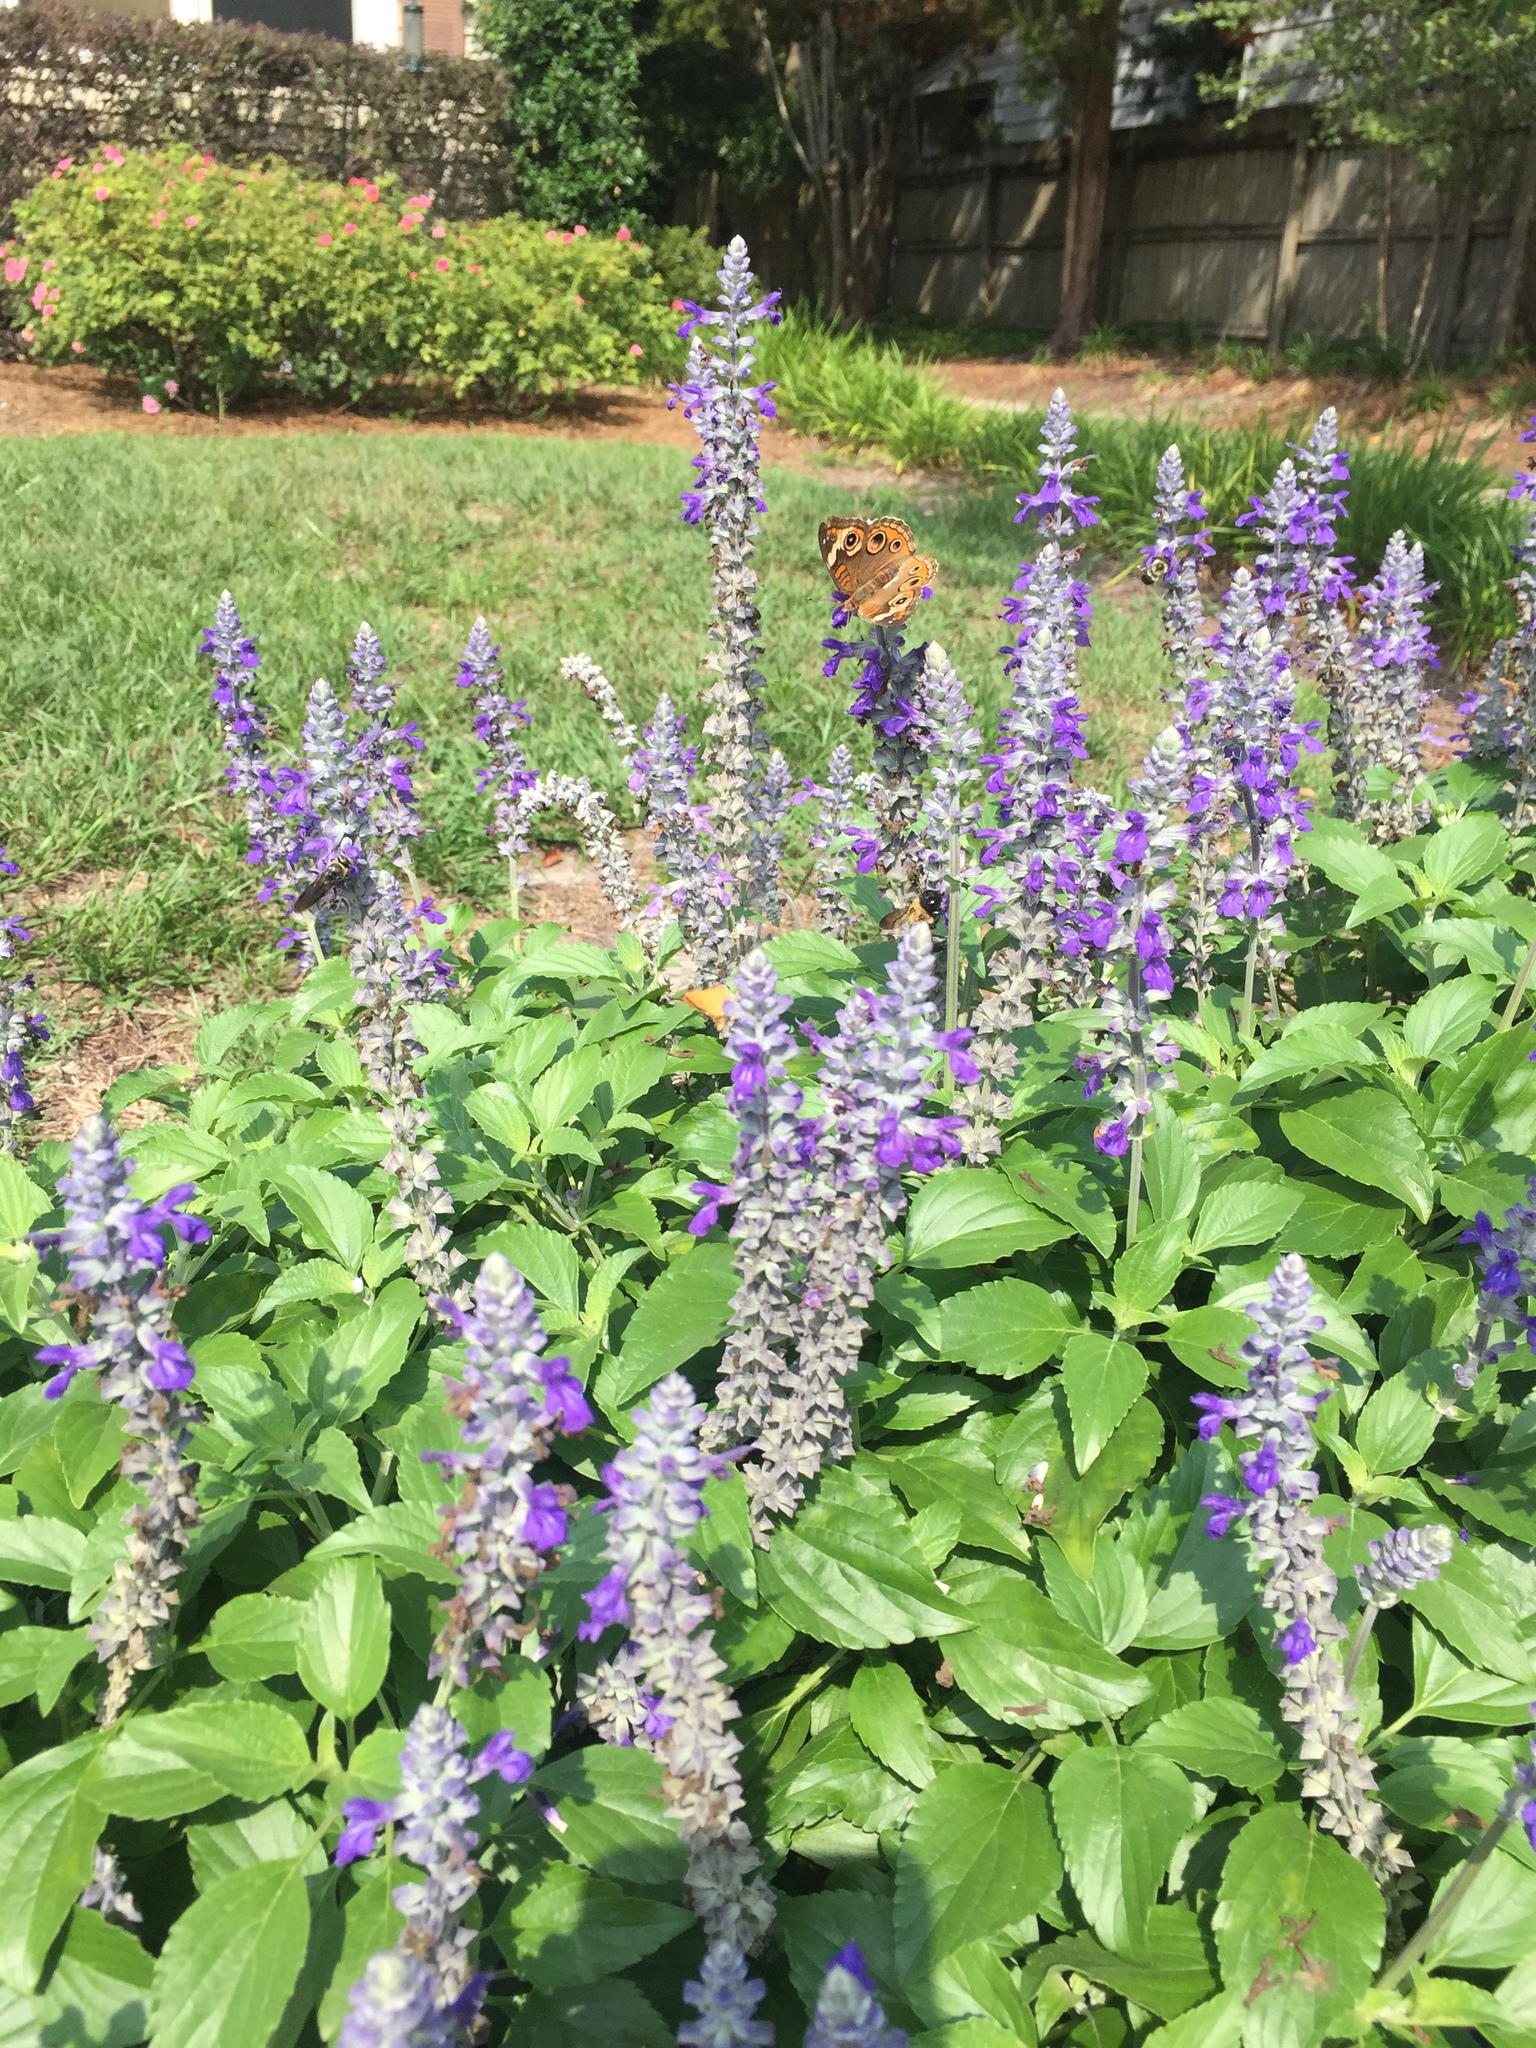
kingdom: Animalia
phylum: Arthropoda
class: Insecta
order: Lepidoptera
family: Nymphalidae
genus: Junonia
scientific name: Junonia coenia
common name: Common buckeye
